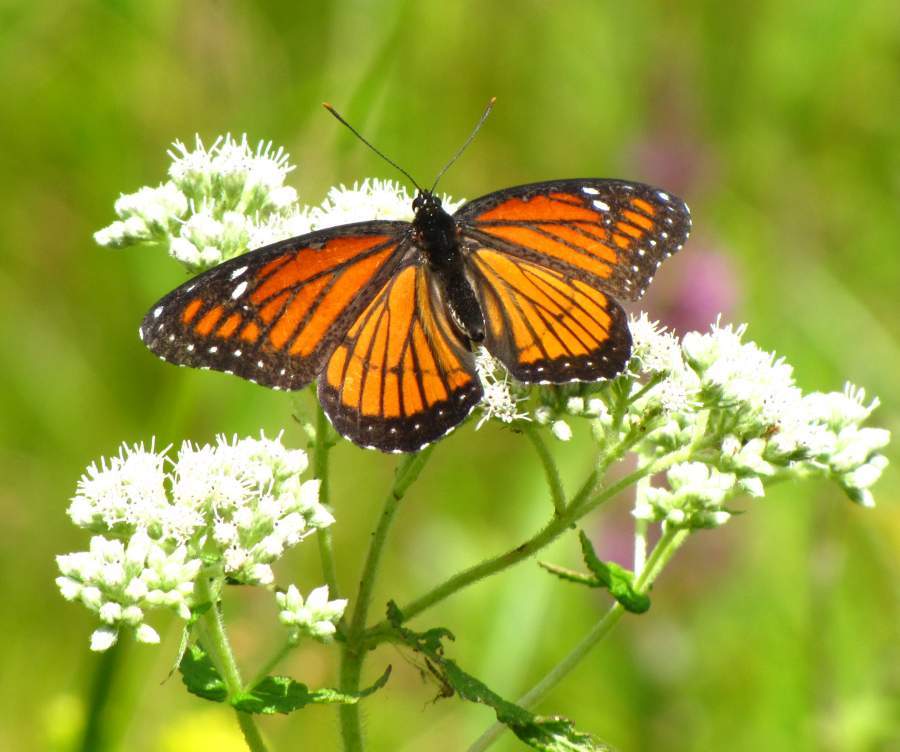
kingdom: Animalia
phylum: Arthropoda
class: Insecta
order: Lepidoptera
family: Nymphalidae
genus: Limenitis
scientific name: Limenitis archippus
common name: Viceroy
